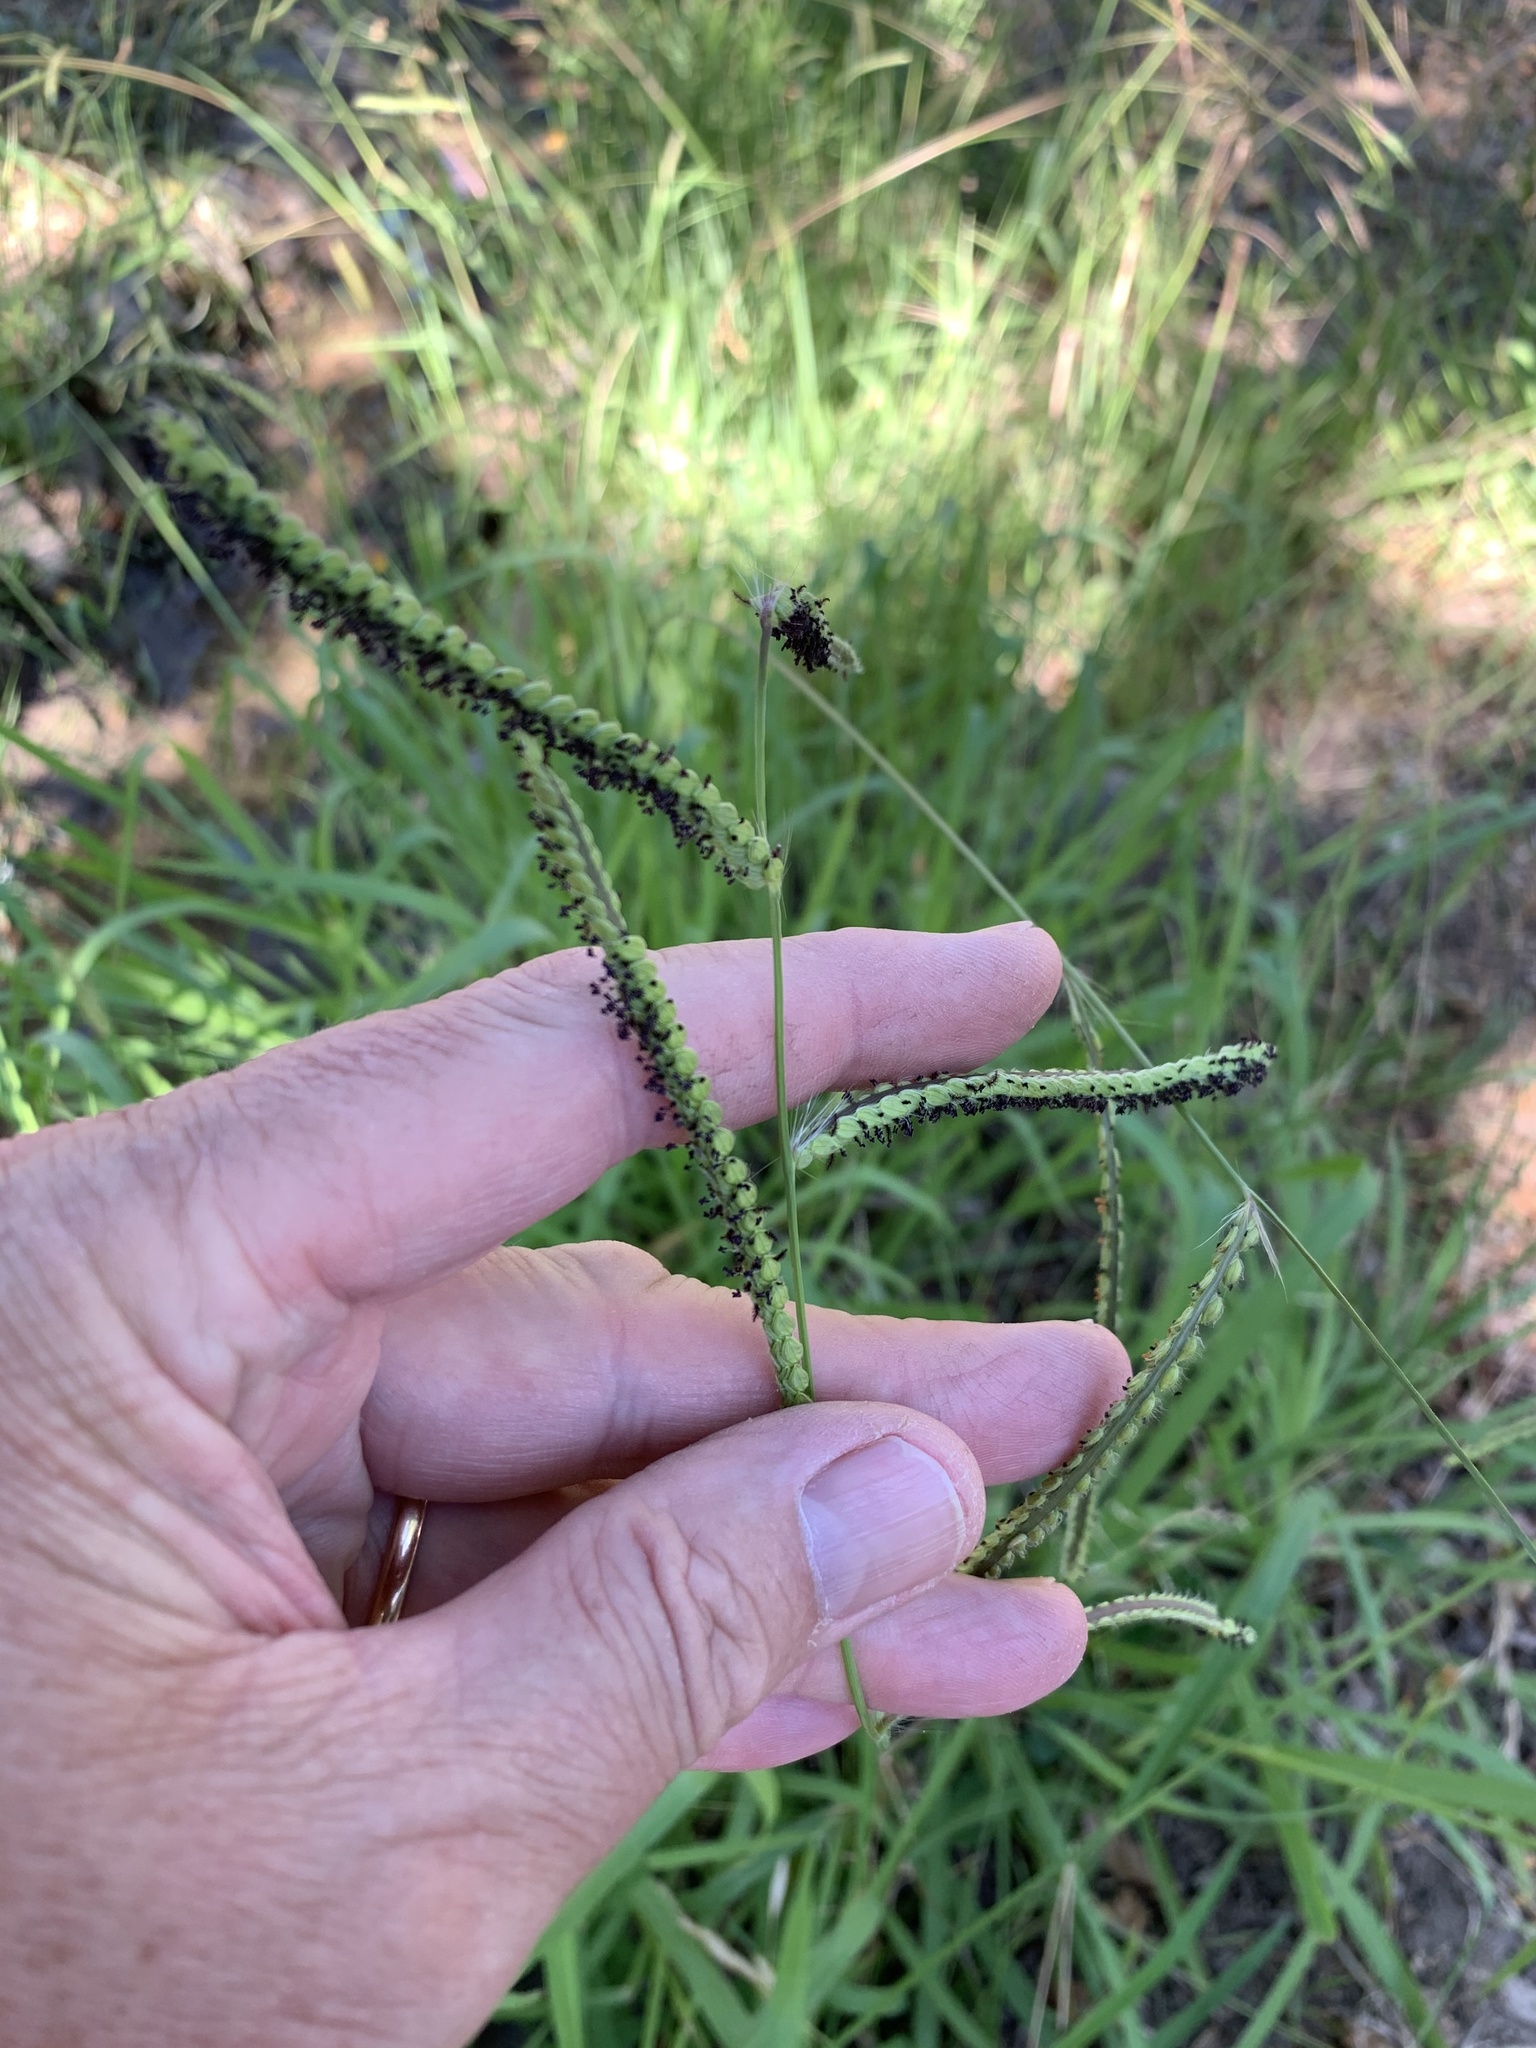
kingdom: Plantae
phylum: Tracheophyta
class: Liliopsida
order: Poales
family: Poaceae
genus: Paspalum
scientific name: Paspalum dilatatum
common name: Dallisgrass
